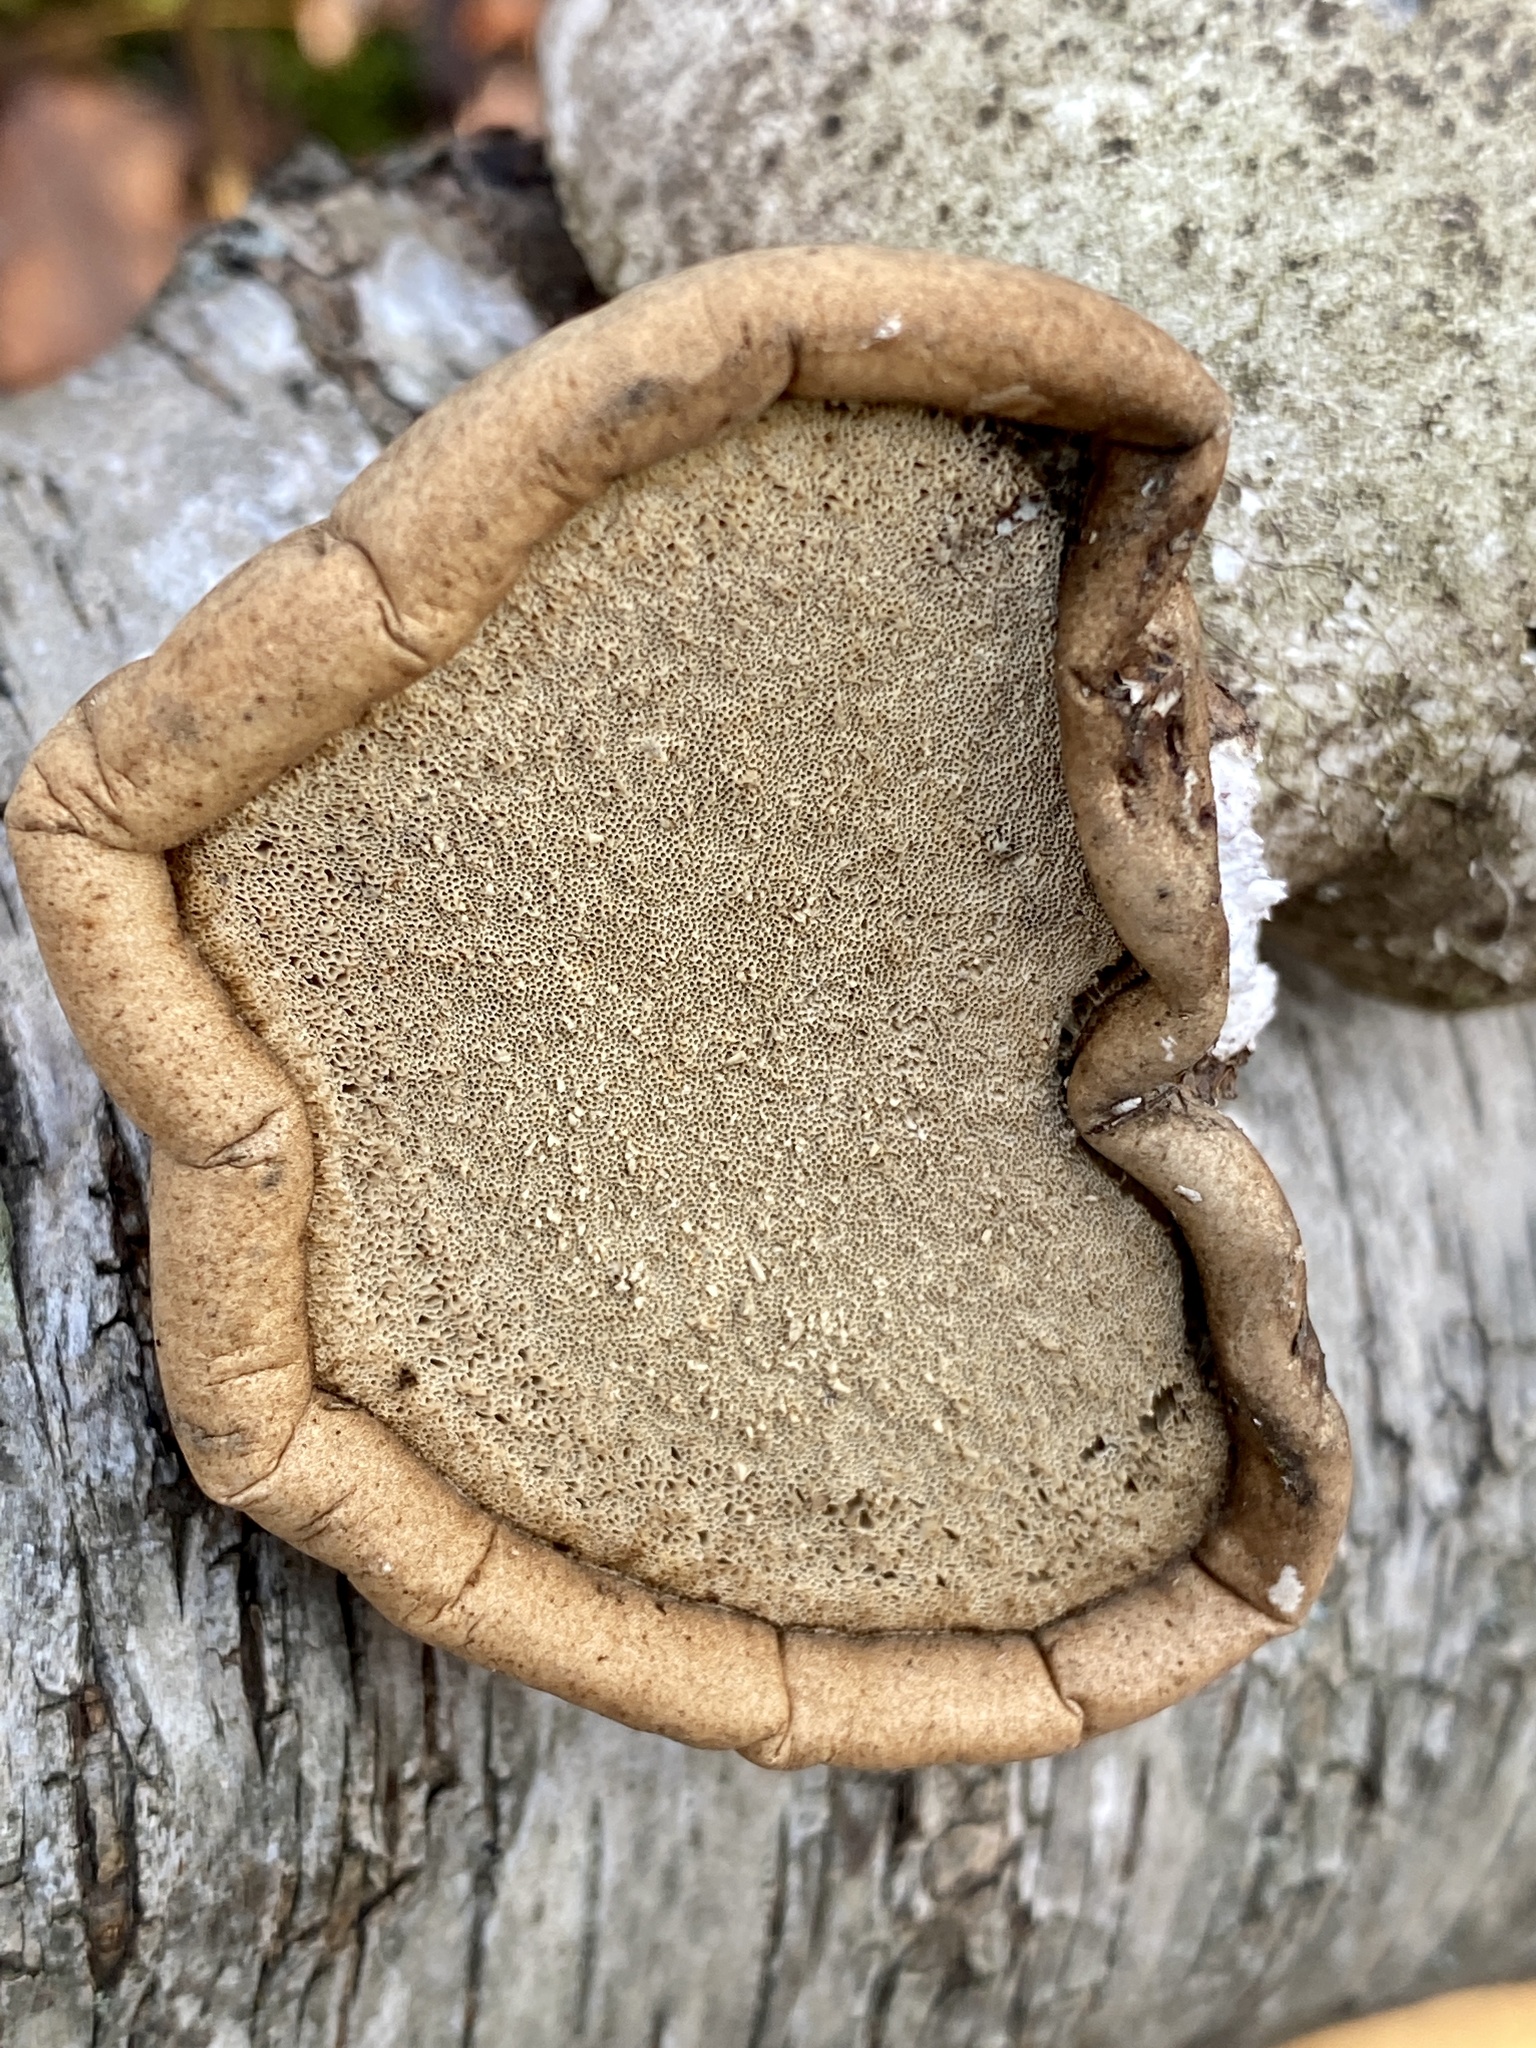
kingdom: Fungi
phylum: Basidiomycota
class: Agaricomycetes
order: Polyporales
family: Fomitopsidaceae
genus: Fomitopsis
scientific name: Fomitopsis betulina
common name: Birch polypore
